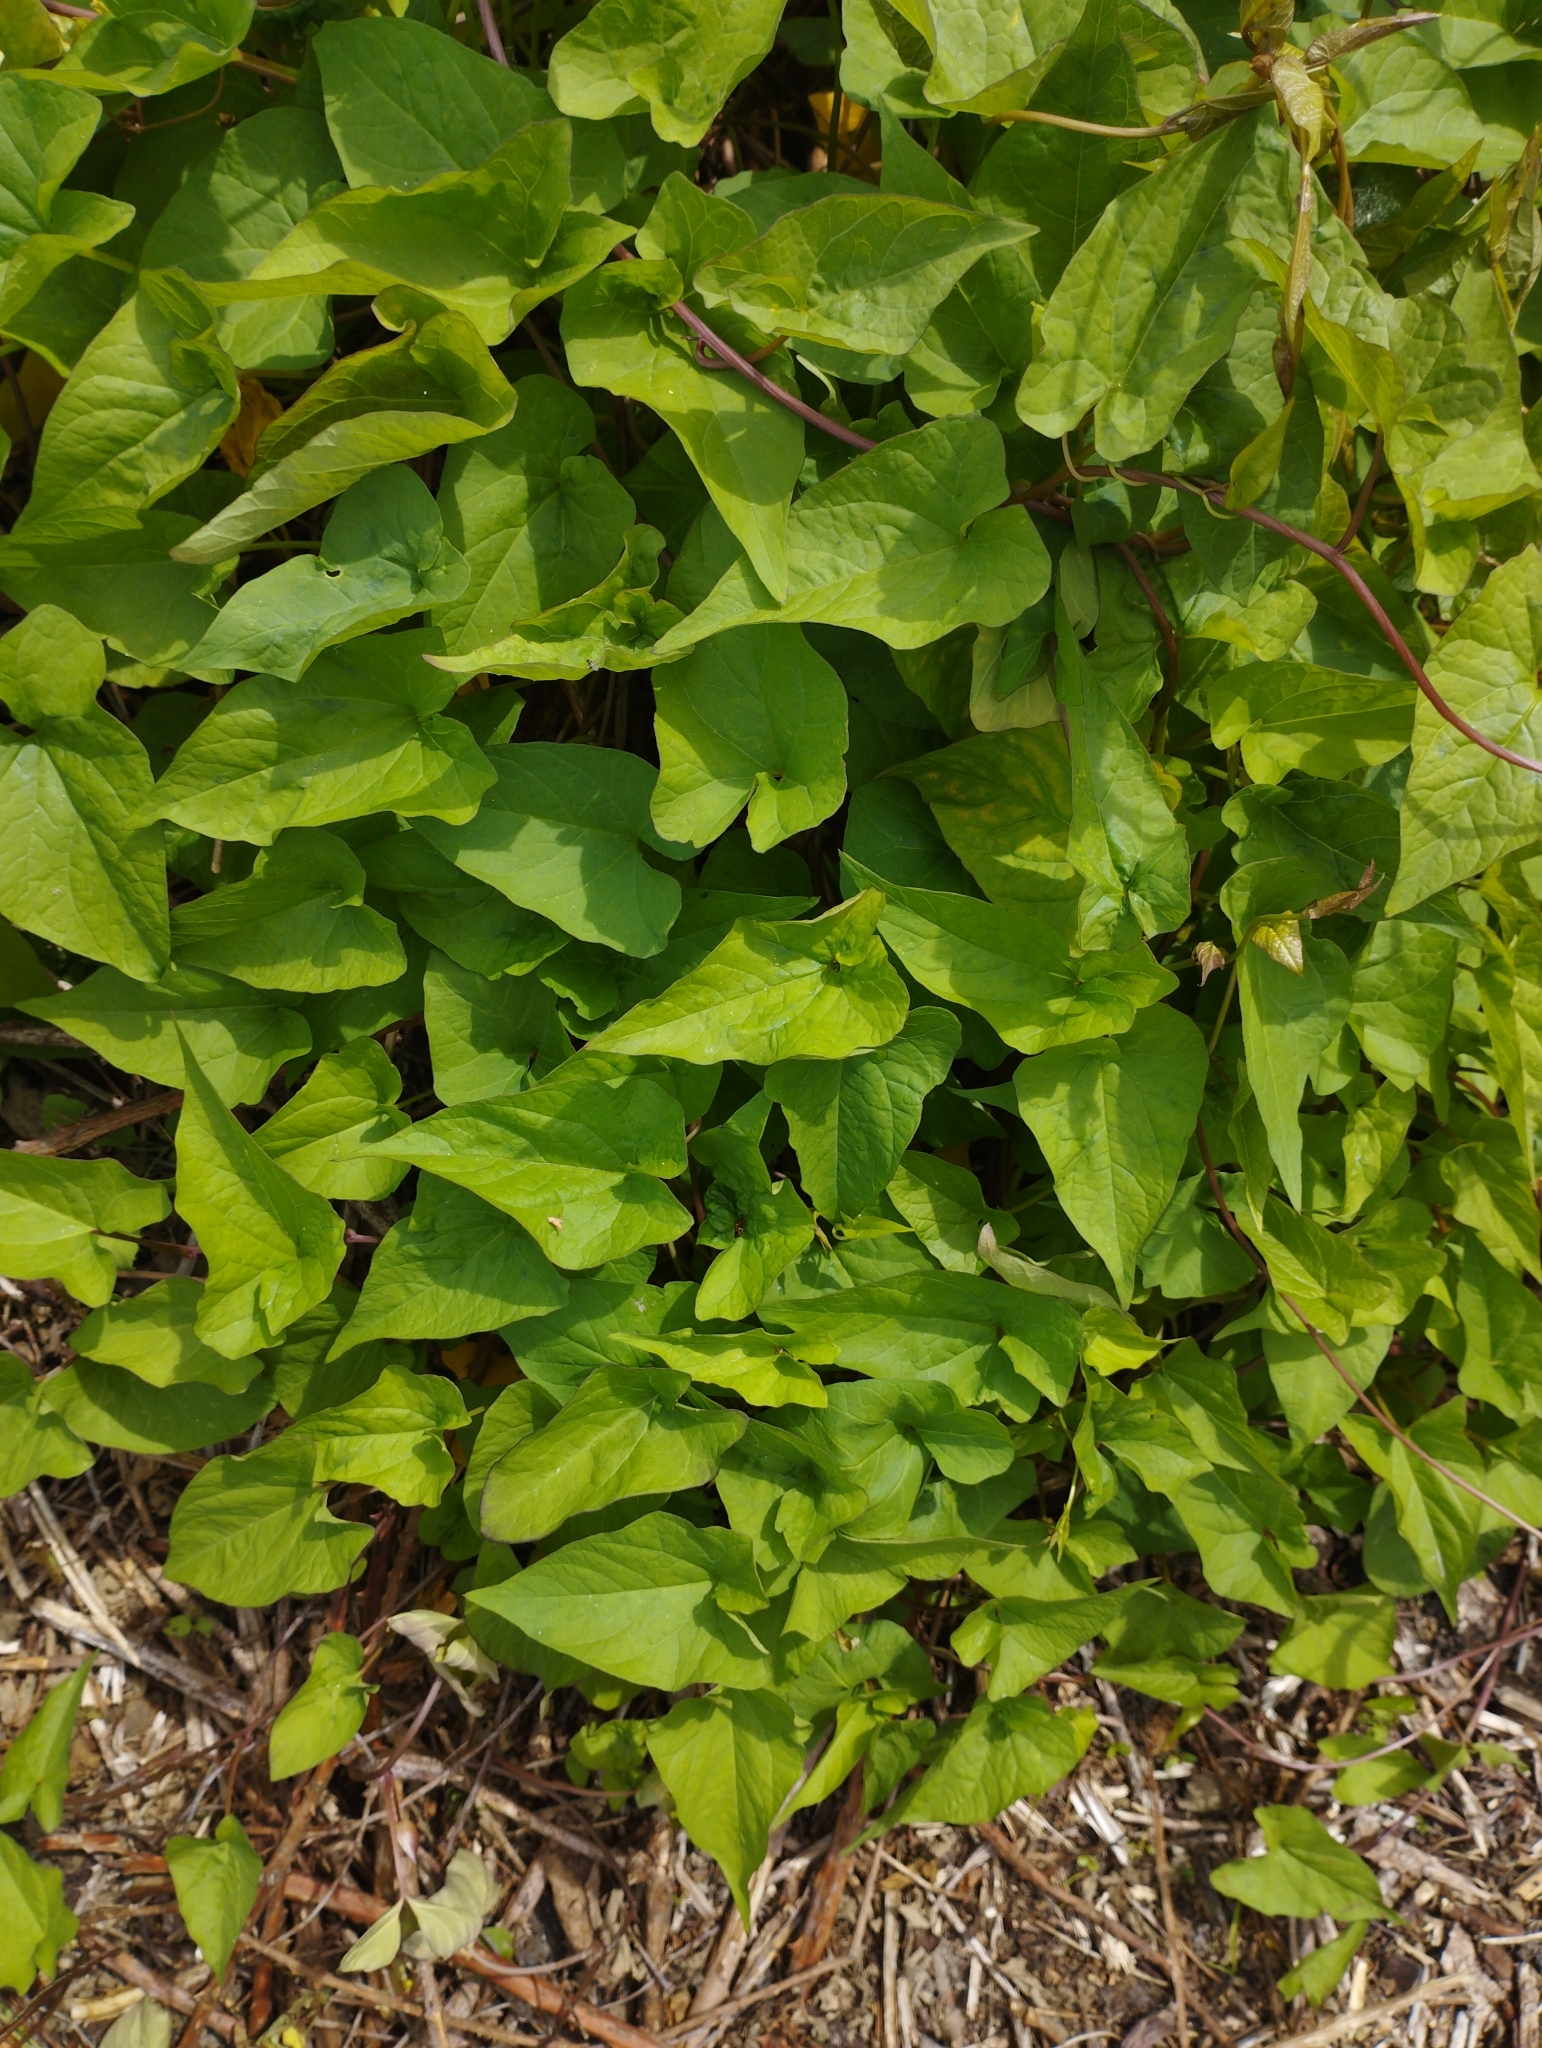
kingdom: Plantae
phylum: Tracheophyta
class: Magnoliopsida
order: Solanales
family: Convolvulaceae
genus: Calystegia
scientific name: Calystegia silvatica
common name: Large bindweed
